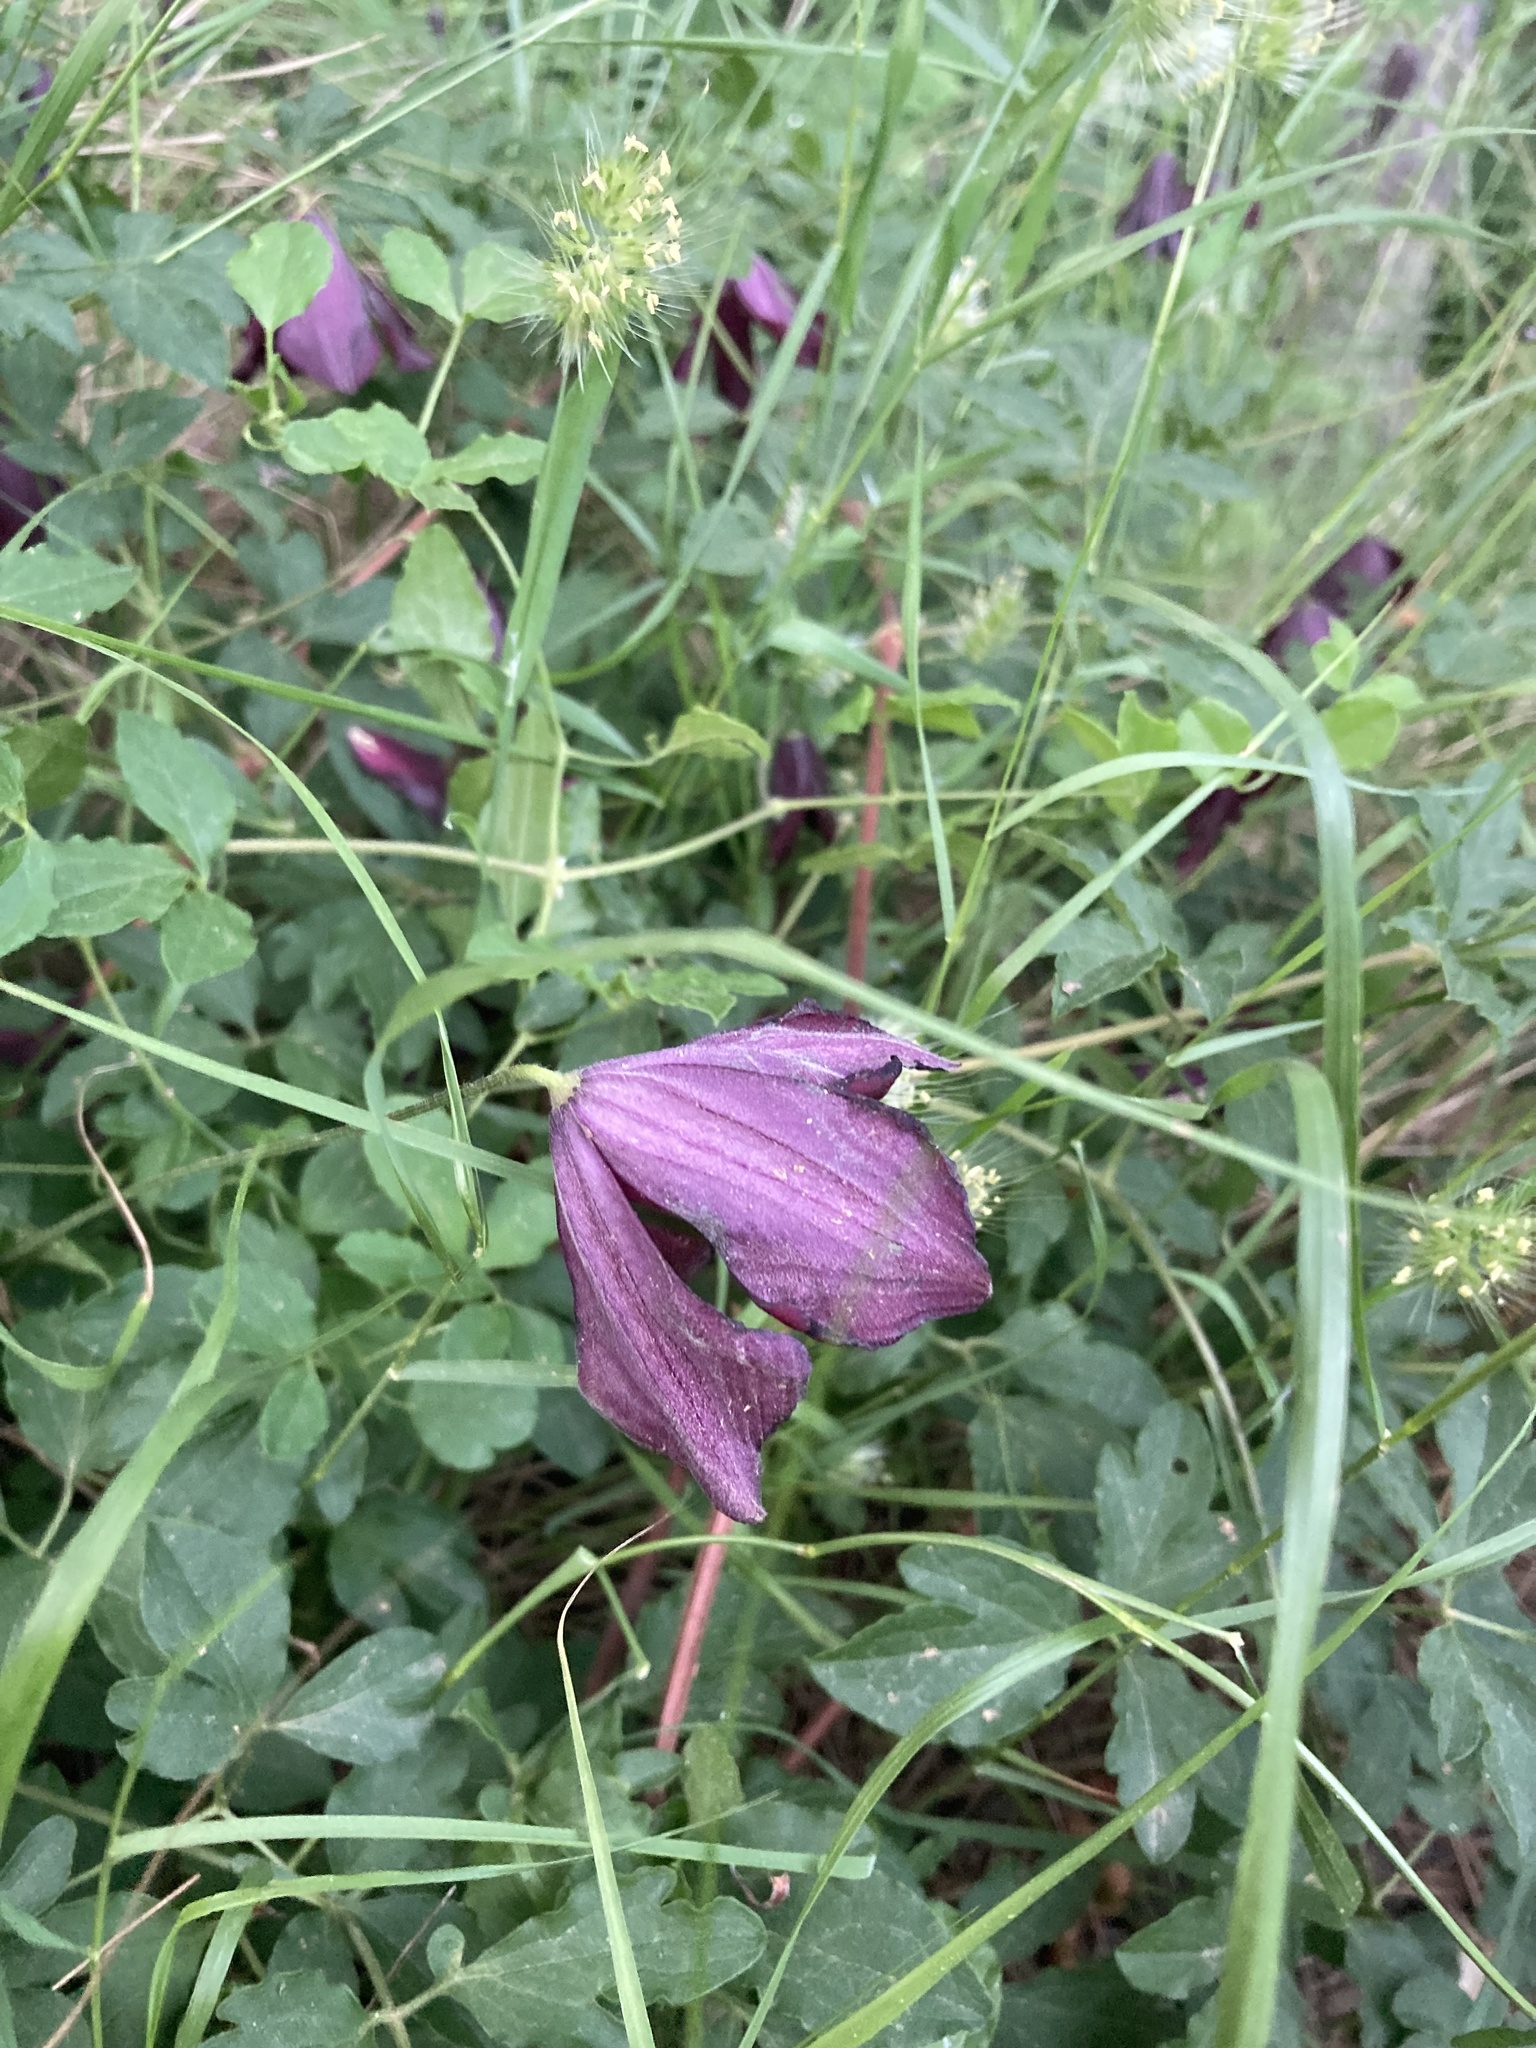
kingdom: Plantae
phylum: Tracheophyta
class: Magnoliopsida
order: Ranunculales
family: Ranunculaceae
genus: Clematis
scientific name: Clematis viticella
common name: Purple clematis
